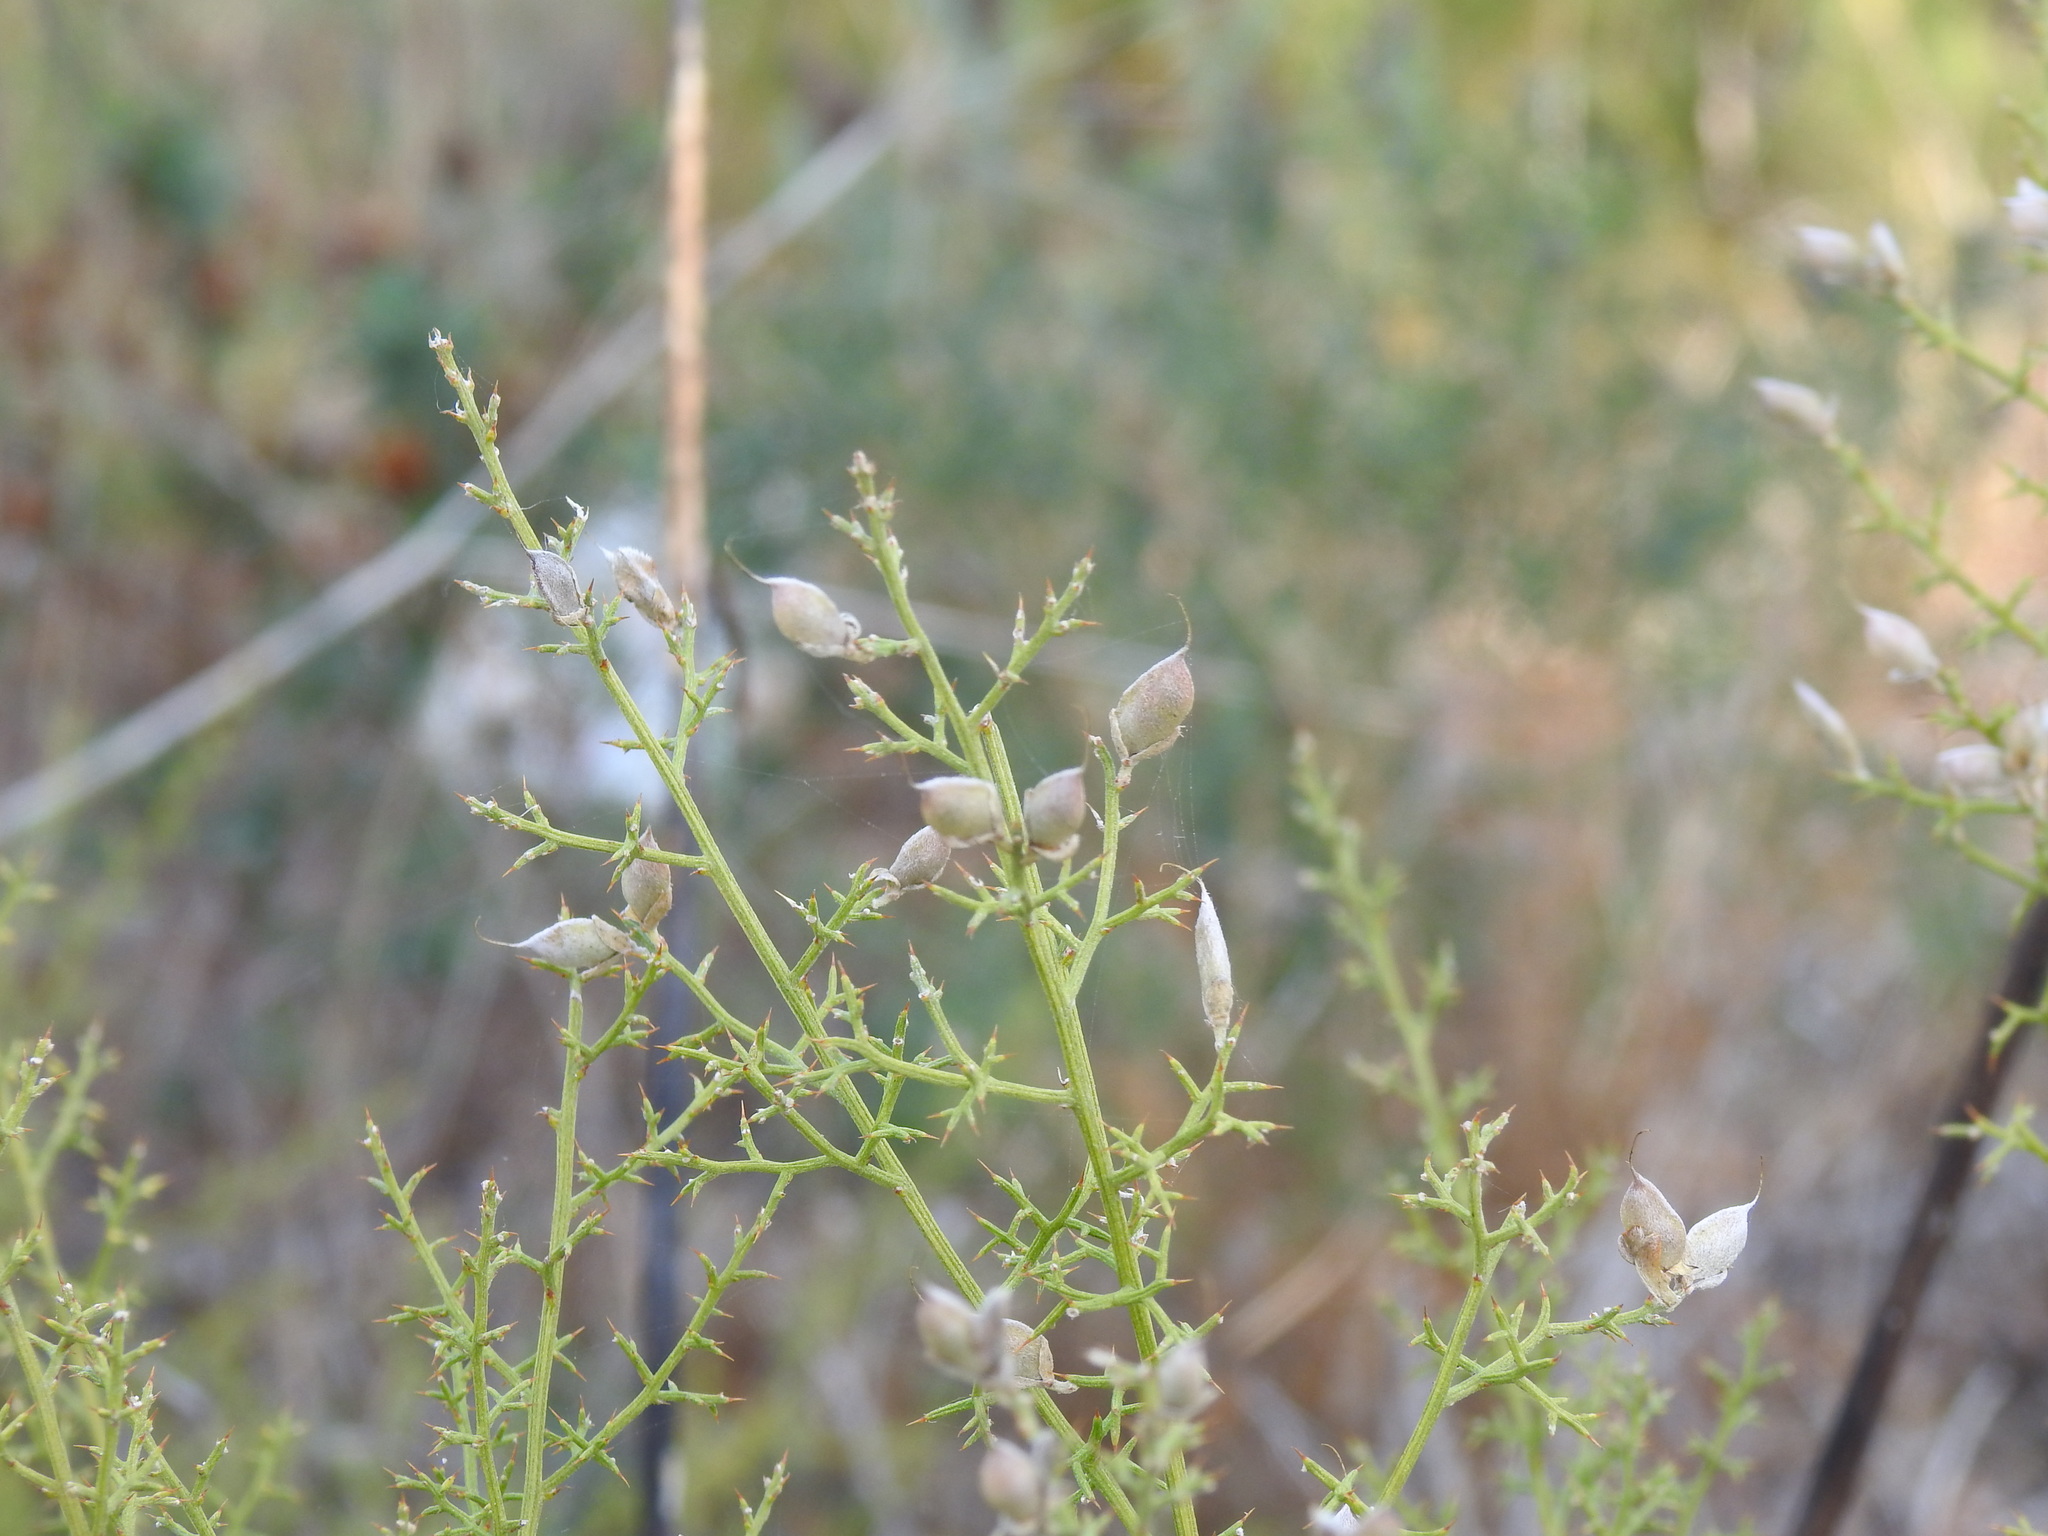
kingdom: Plantae
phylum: Tracheophyta
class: Magnoliopsida
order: Fabales
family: Fabaceae
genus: Stauracanthus
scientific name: Stauracanthus boivinii
